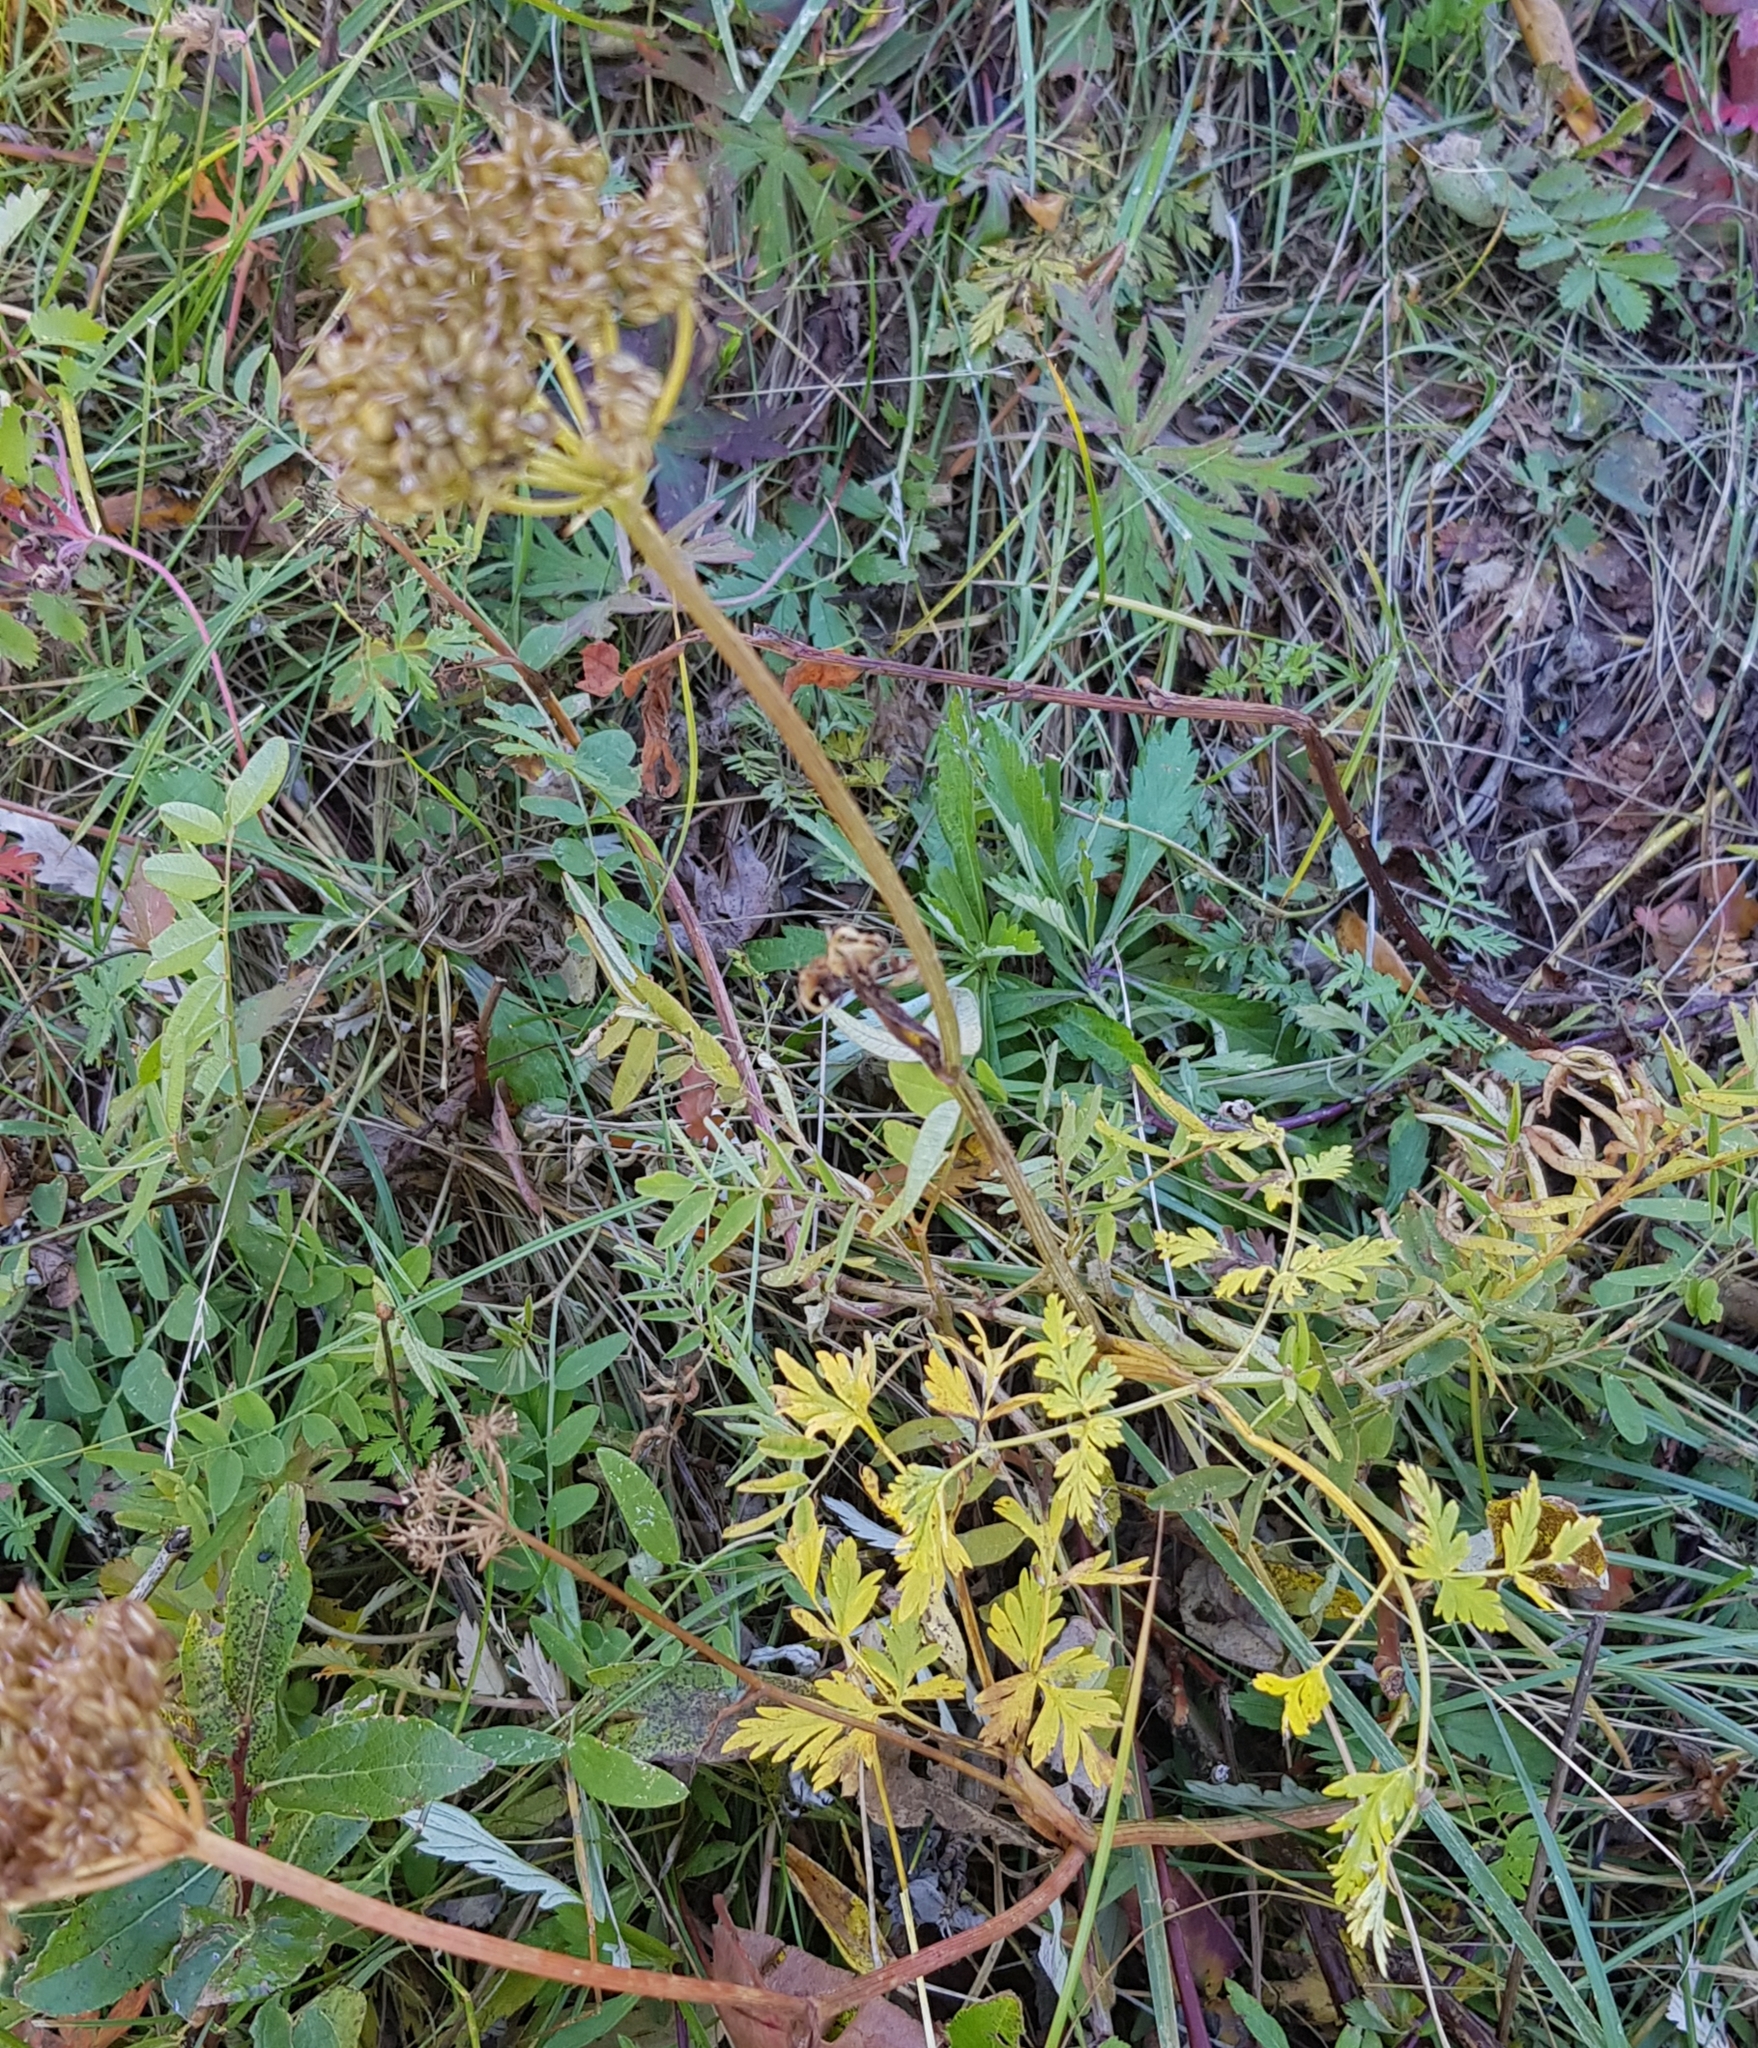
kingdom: Plantae
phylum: Tracheophyta
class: Magnoliopsida
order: Apiales
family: Apiaceae
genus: Conioselinum
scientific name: Conioselinum tataricum
